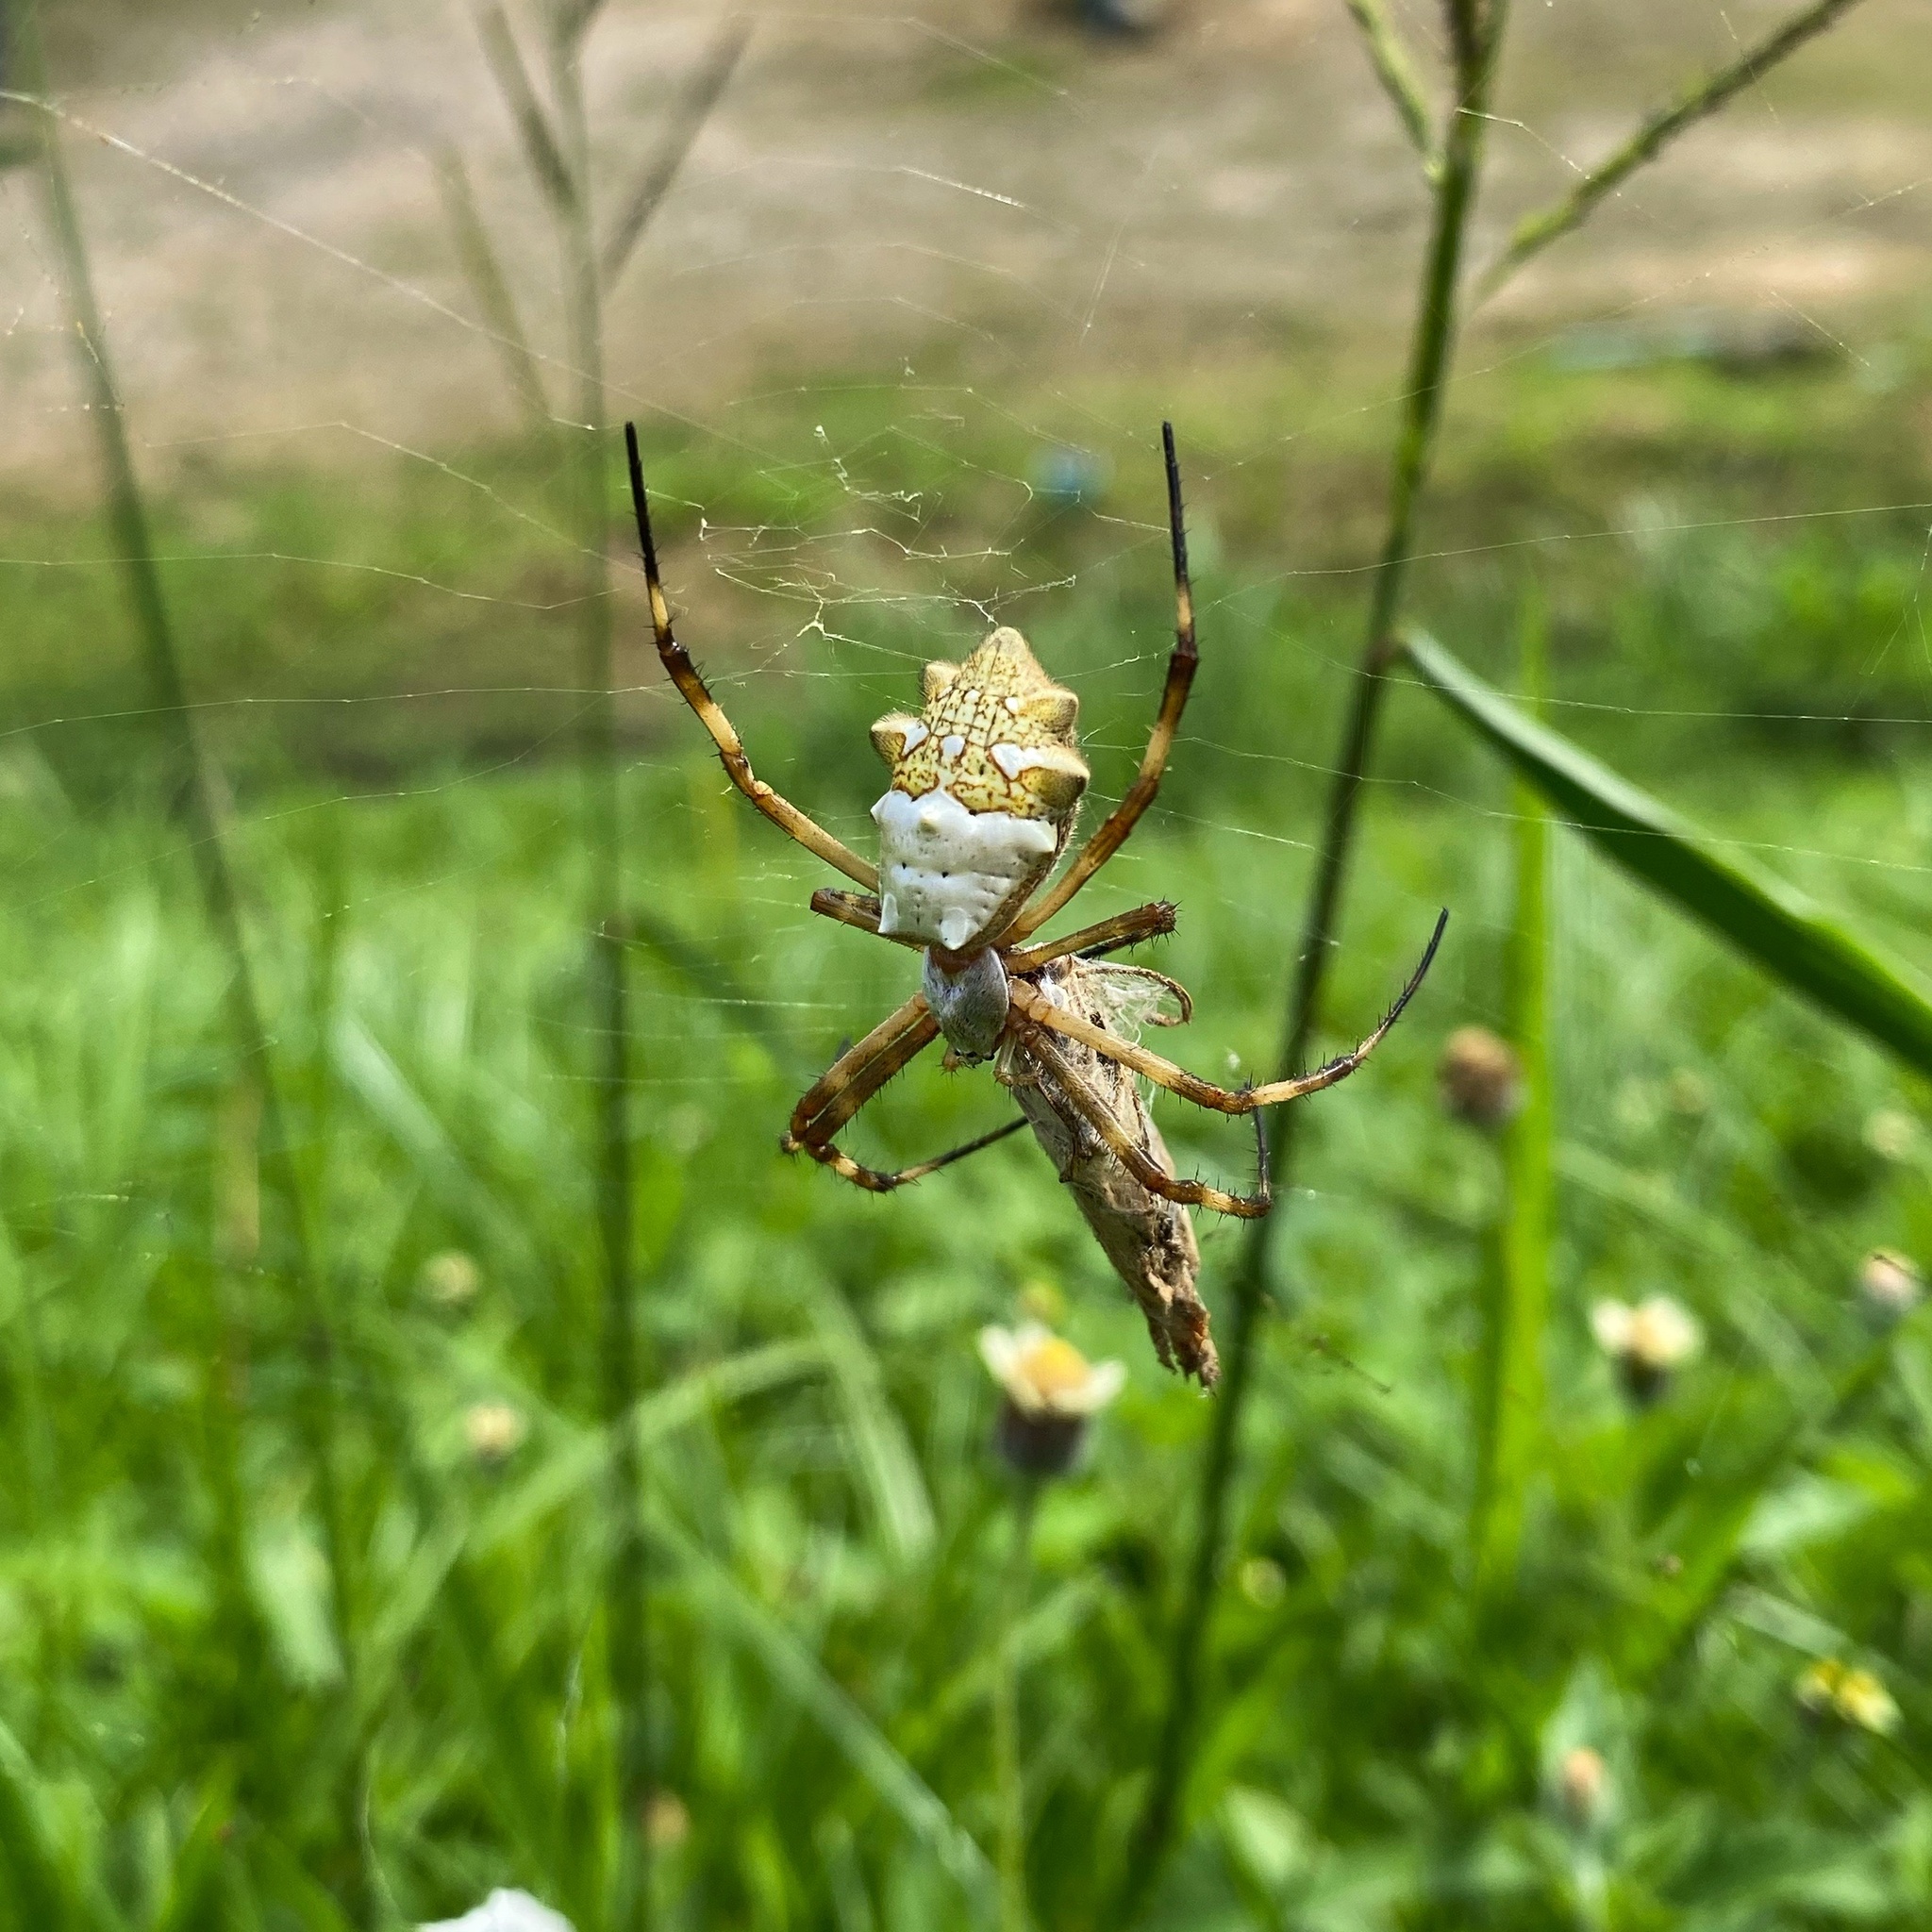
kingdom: Animalia
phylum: Arthropoda
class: Arachnida
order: Araneae
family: Araneidae
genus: Argiope
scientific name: Argiope argentata
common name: Orb weavers
